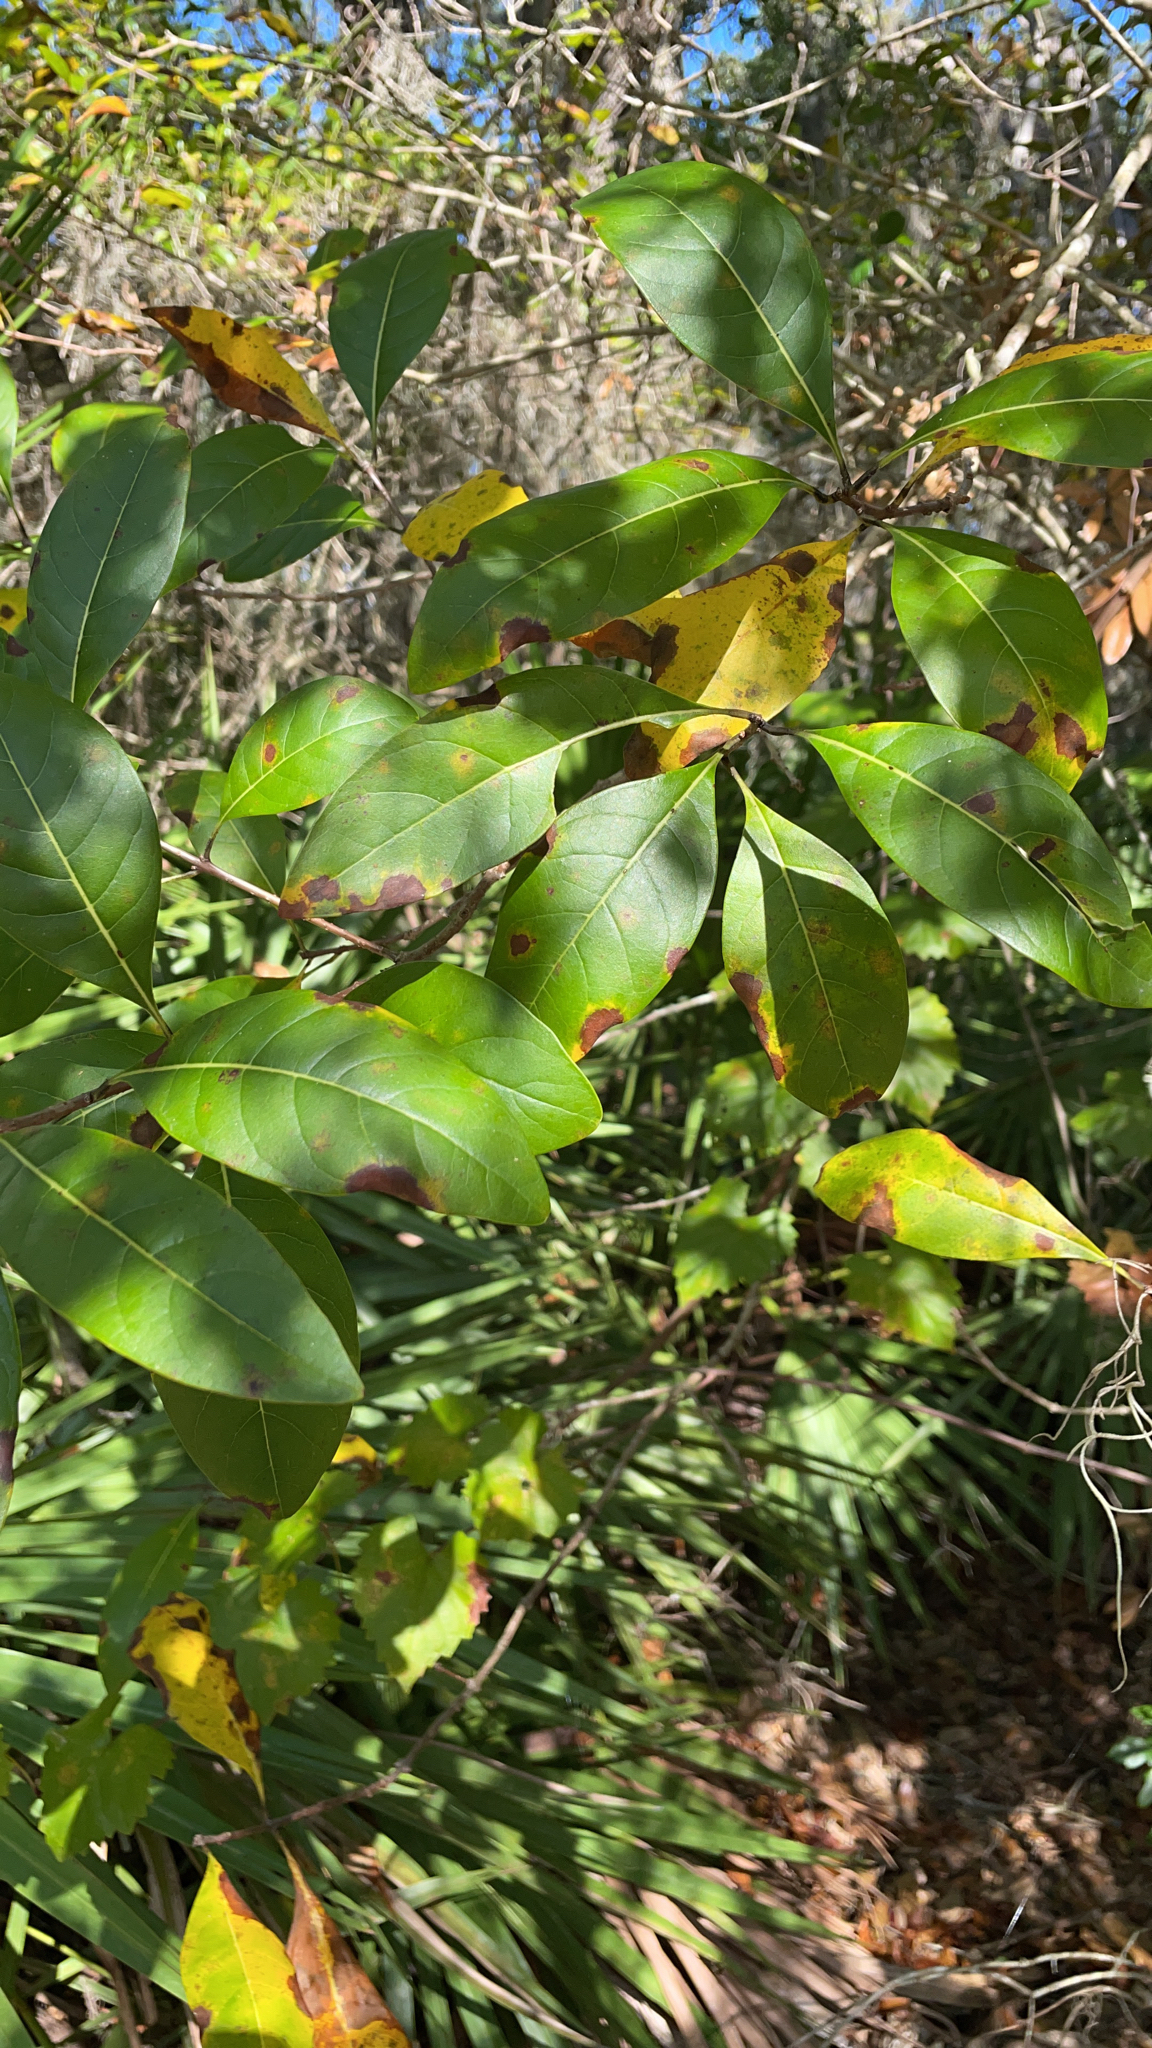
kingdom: Plantae
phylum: Tracheophyta
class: Magnoliopsida
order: Lamiales
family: Oleaceae
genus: Chionanthus
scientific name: Chionanthus virginicus
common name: American fringetree
